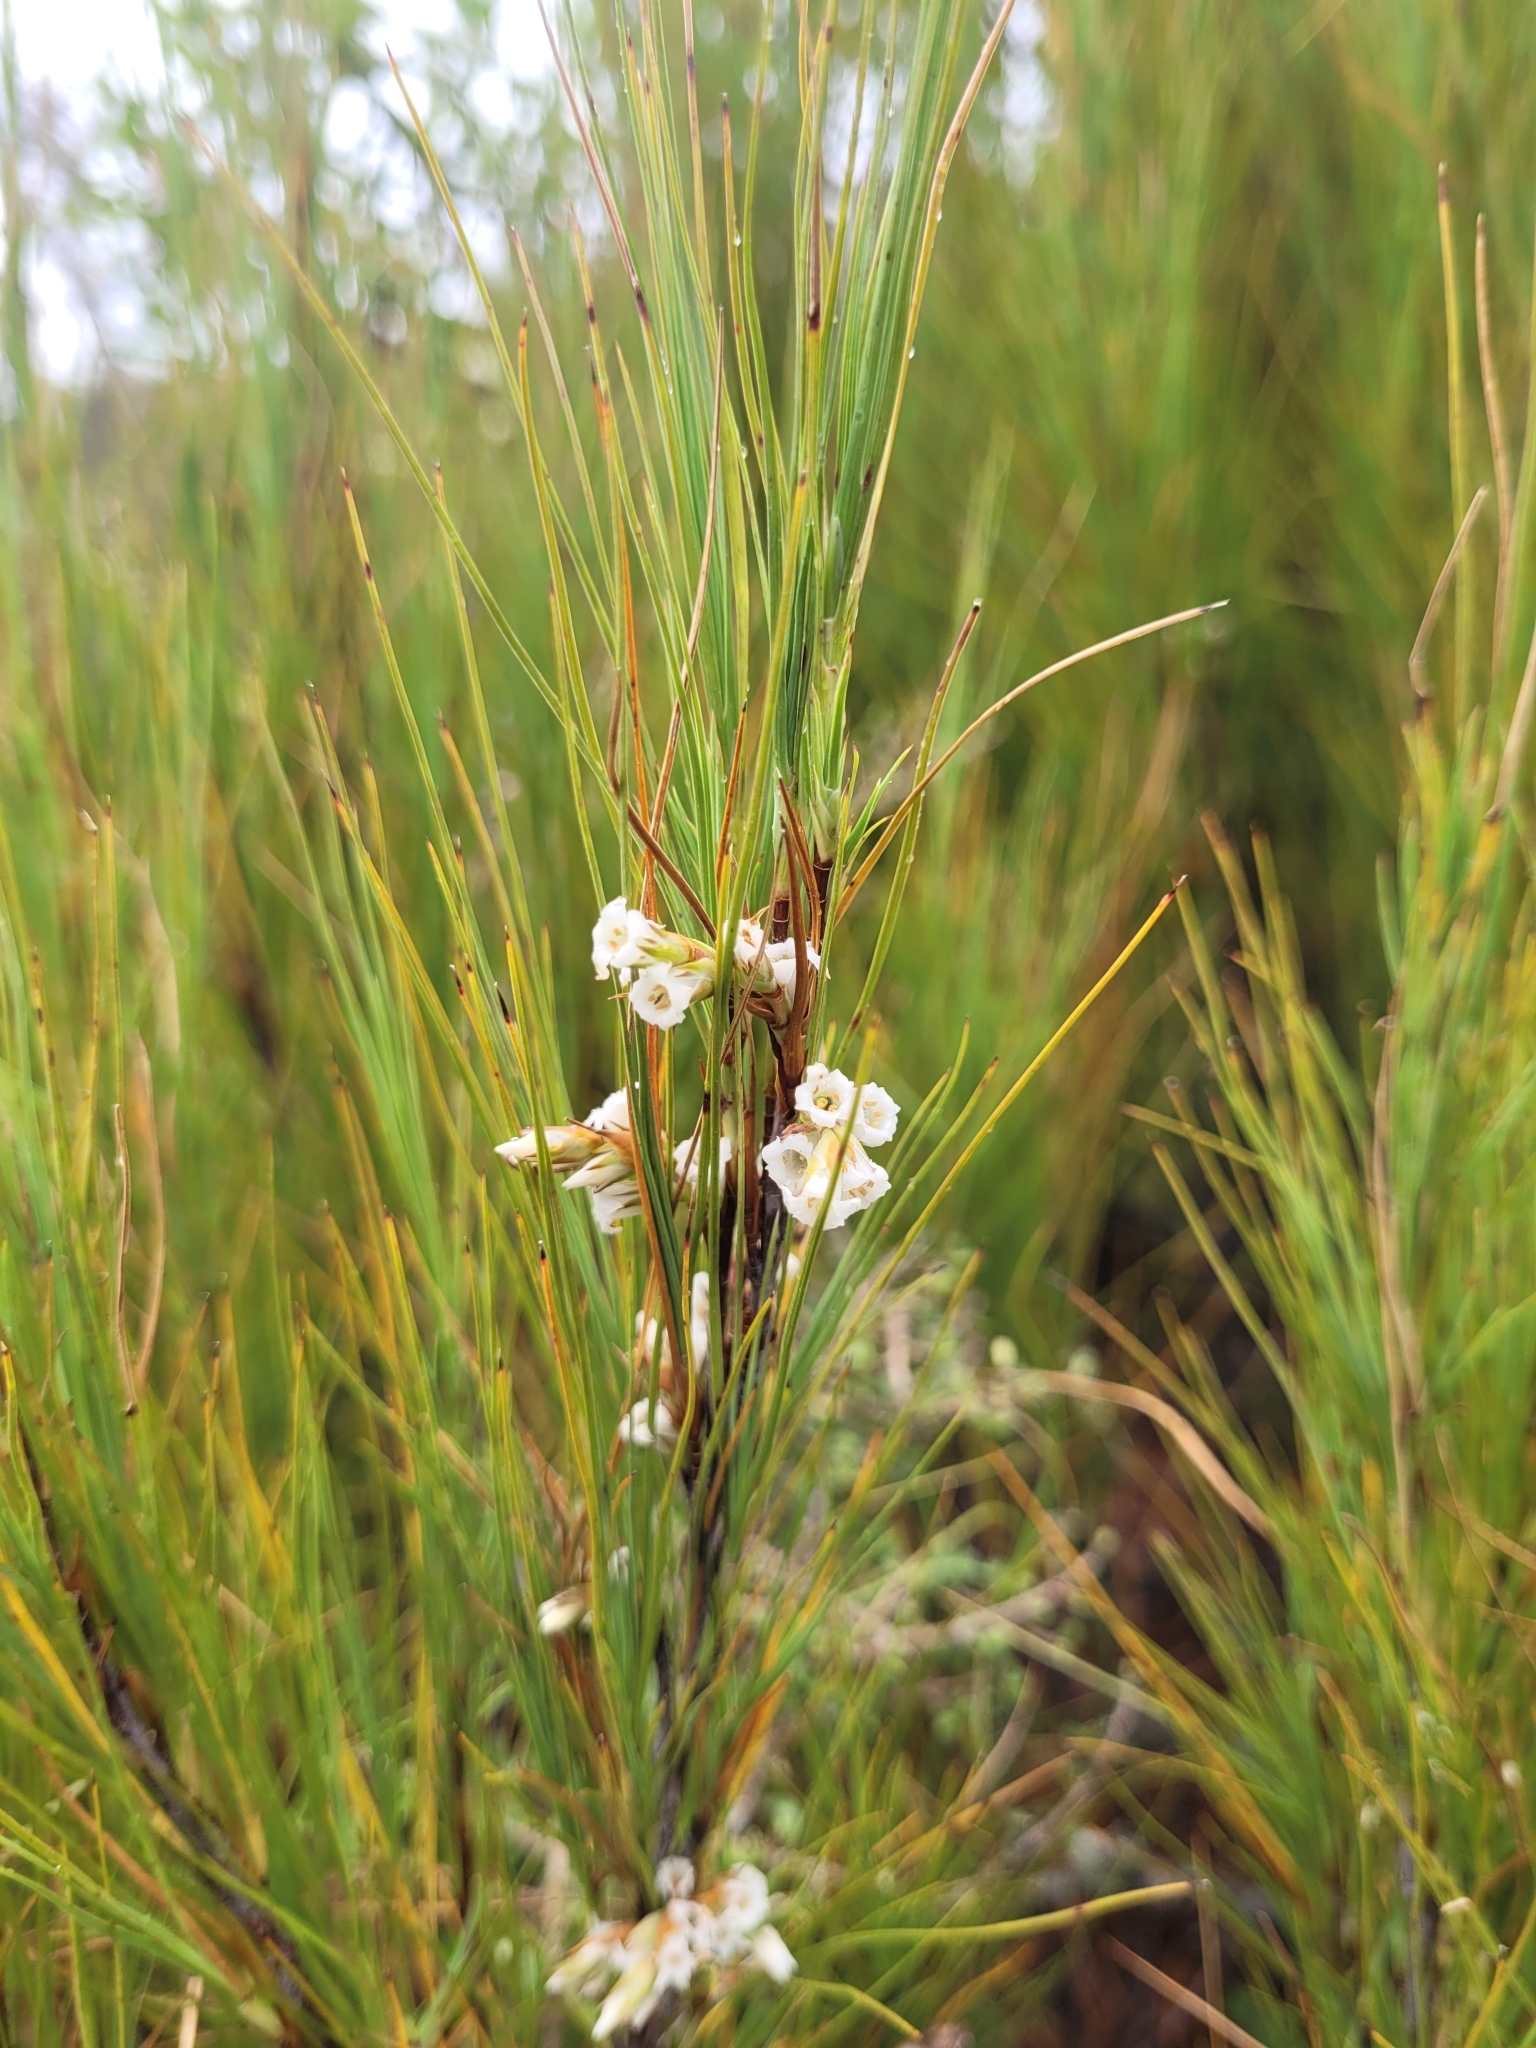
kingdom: Plantae
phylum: Tracheophyta
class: Magnoliopsida
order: Ericales
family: Ericaceae
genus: Dracophyllum
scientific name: Dracophyllum filifolium
